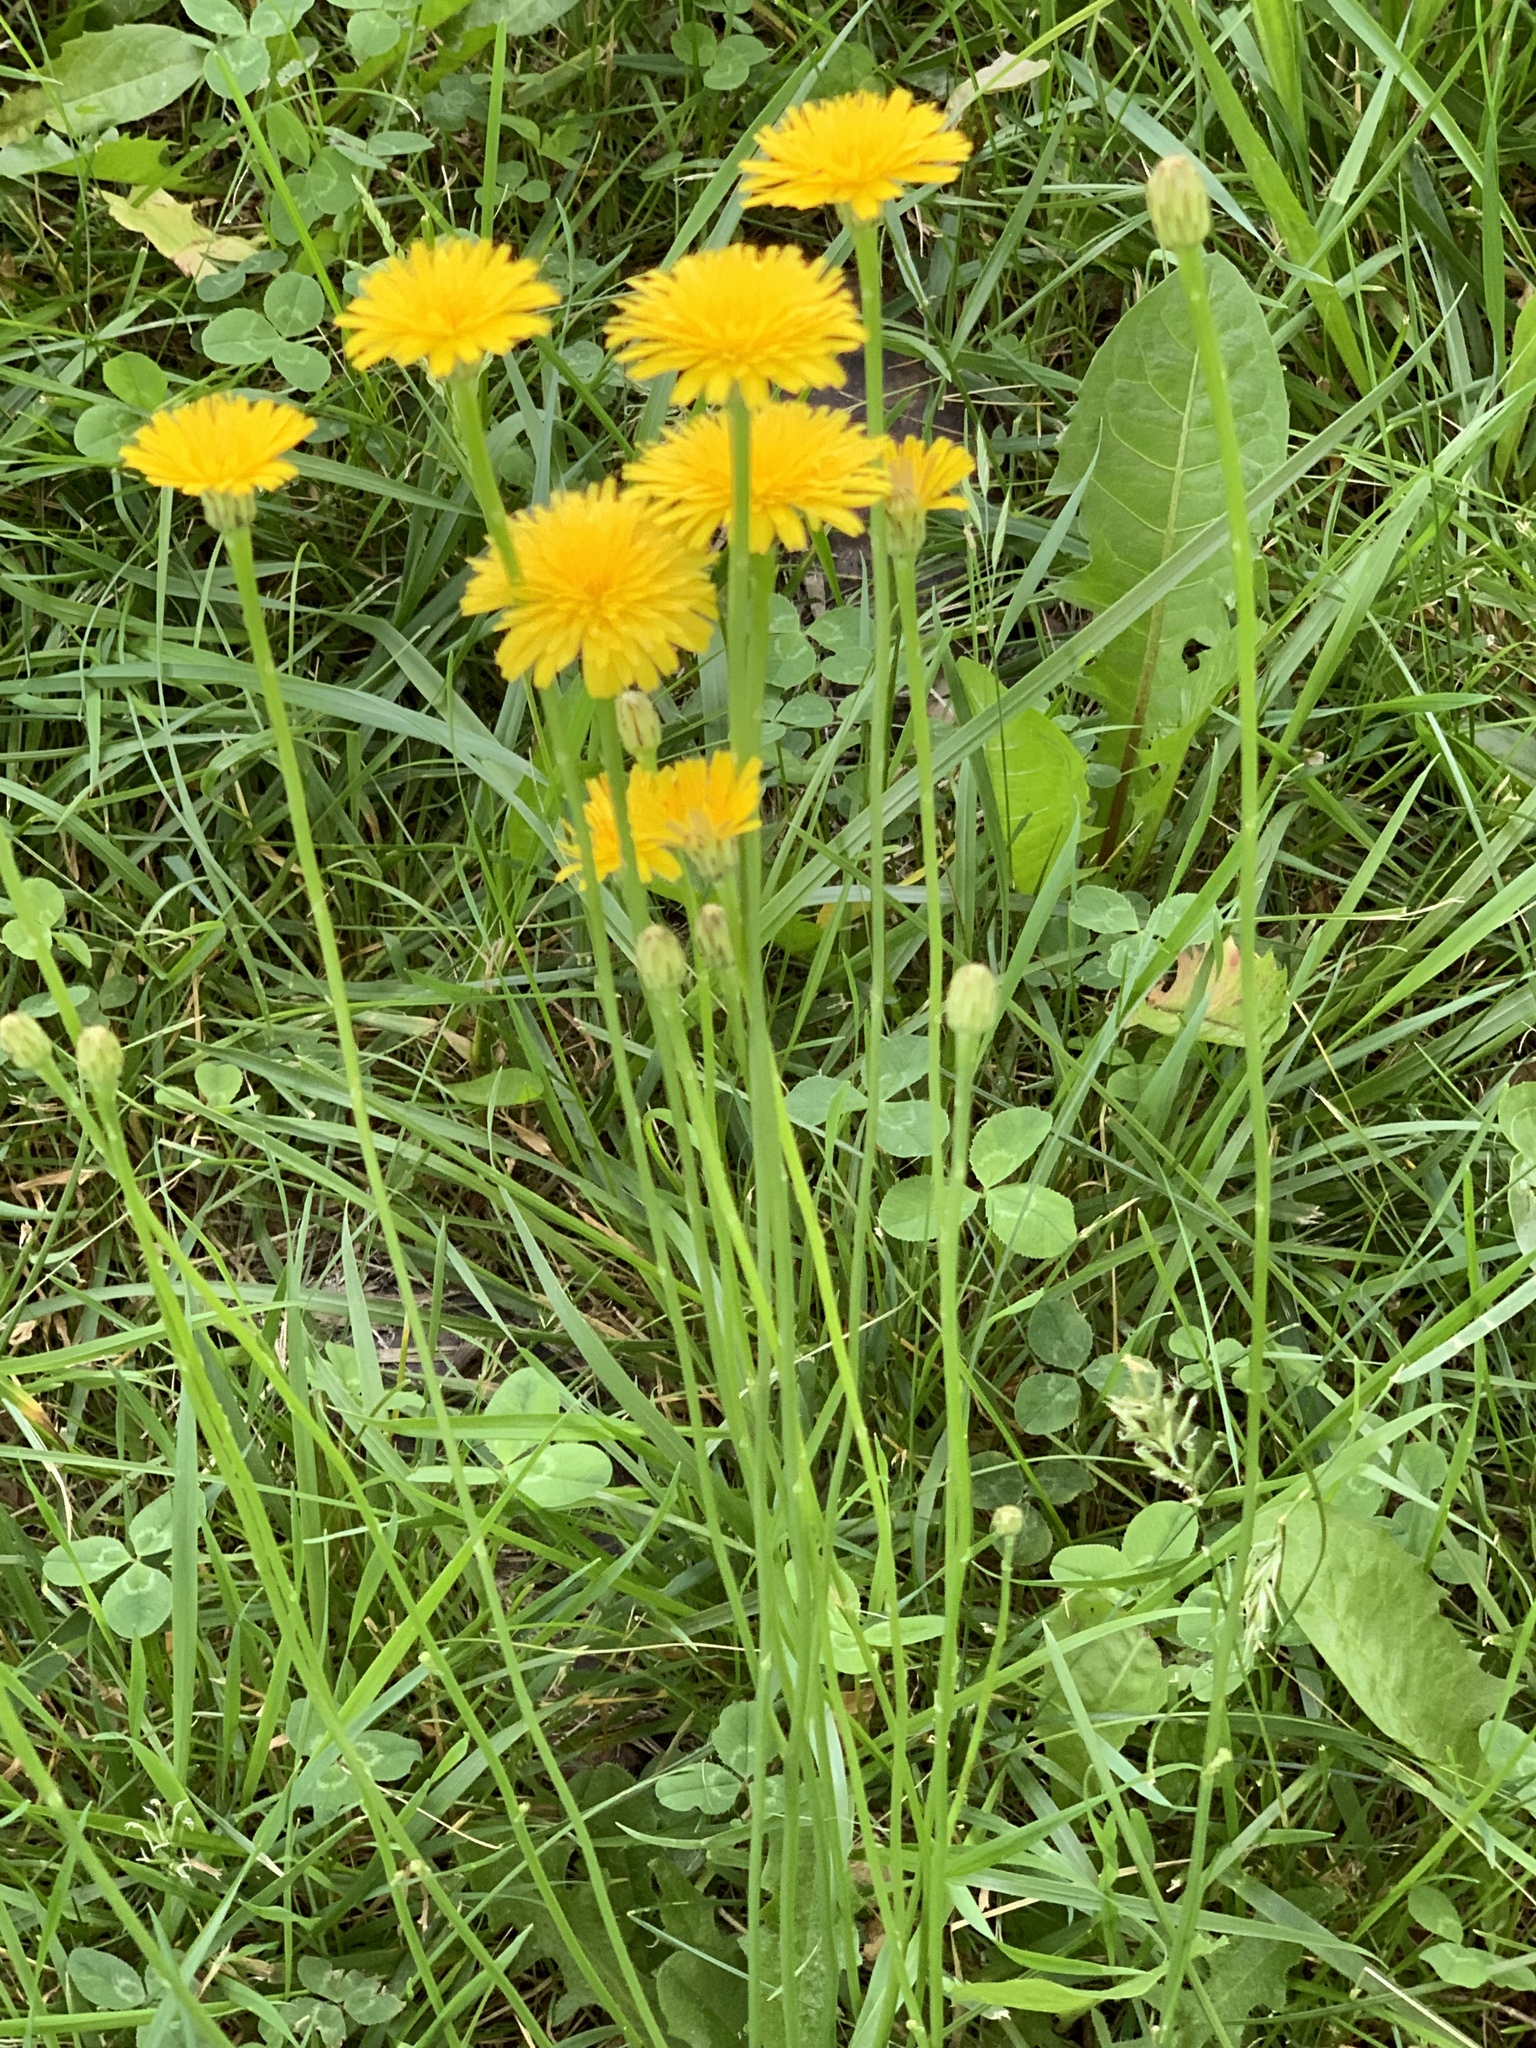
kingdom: Plantae
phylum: Tracheophyta
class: Magnoliopsida
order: Asterales
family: Asteraceae
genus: Hypochaeris
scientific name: Hypochaeris radicata
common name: Flatweed
